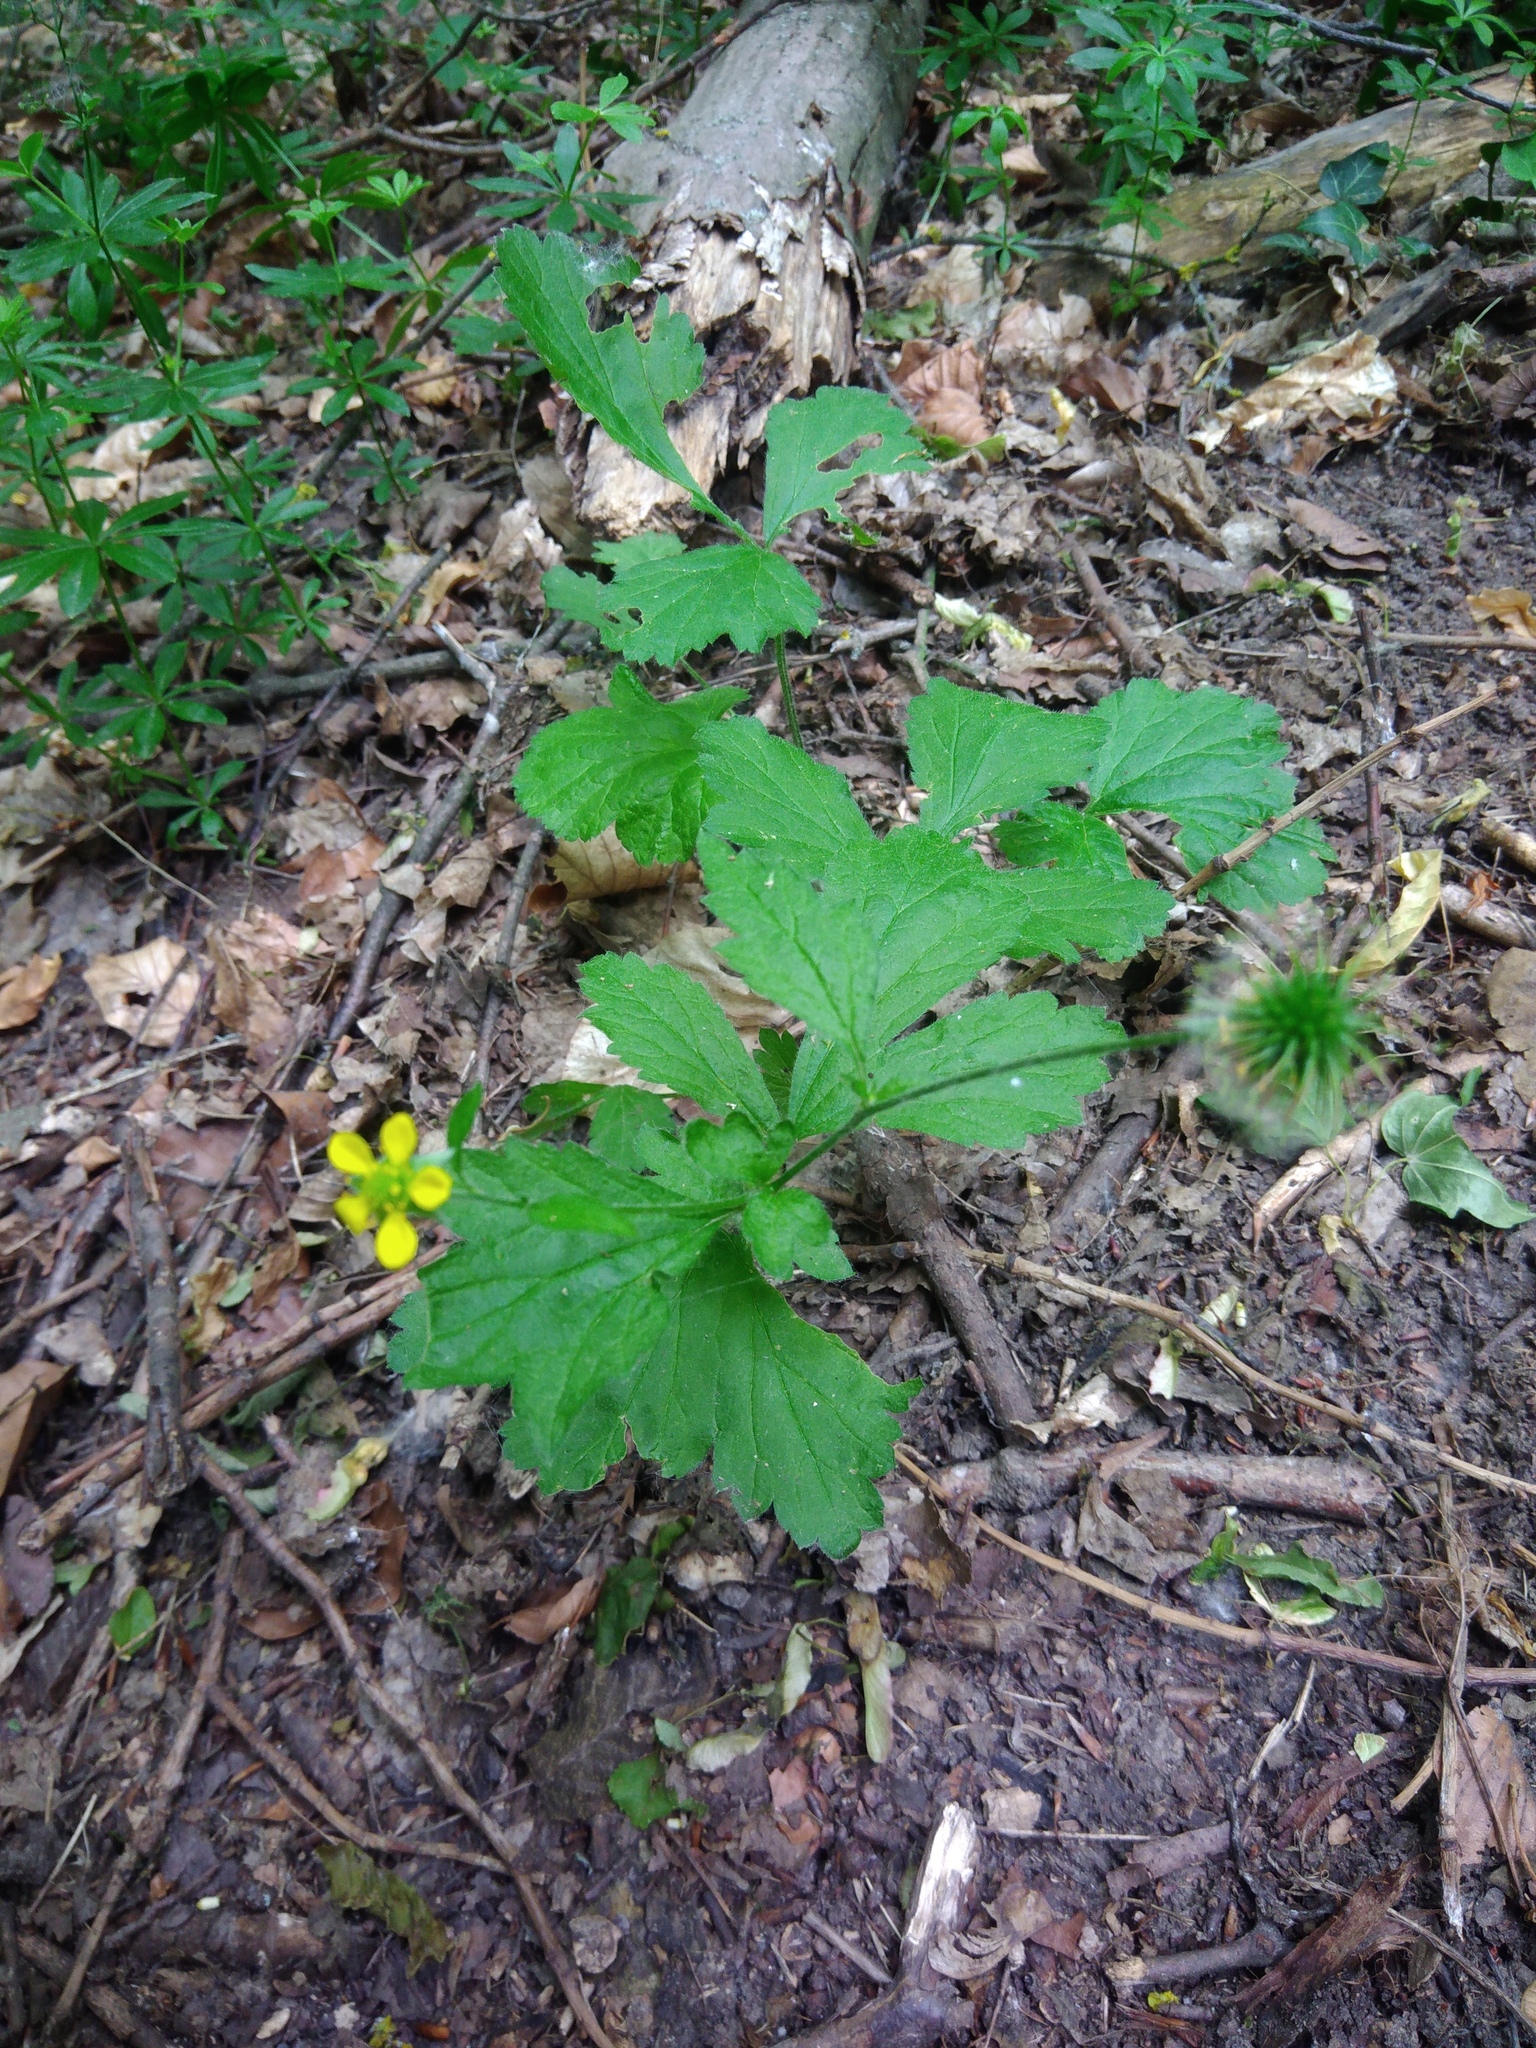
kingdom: Plantae
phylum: Tracheophyta
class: Magnoliopsida
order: Rosales
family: Rosaceae
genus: Geum
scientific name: Geum urbanum
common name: Wood avens
